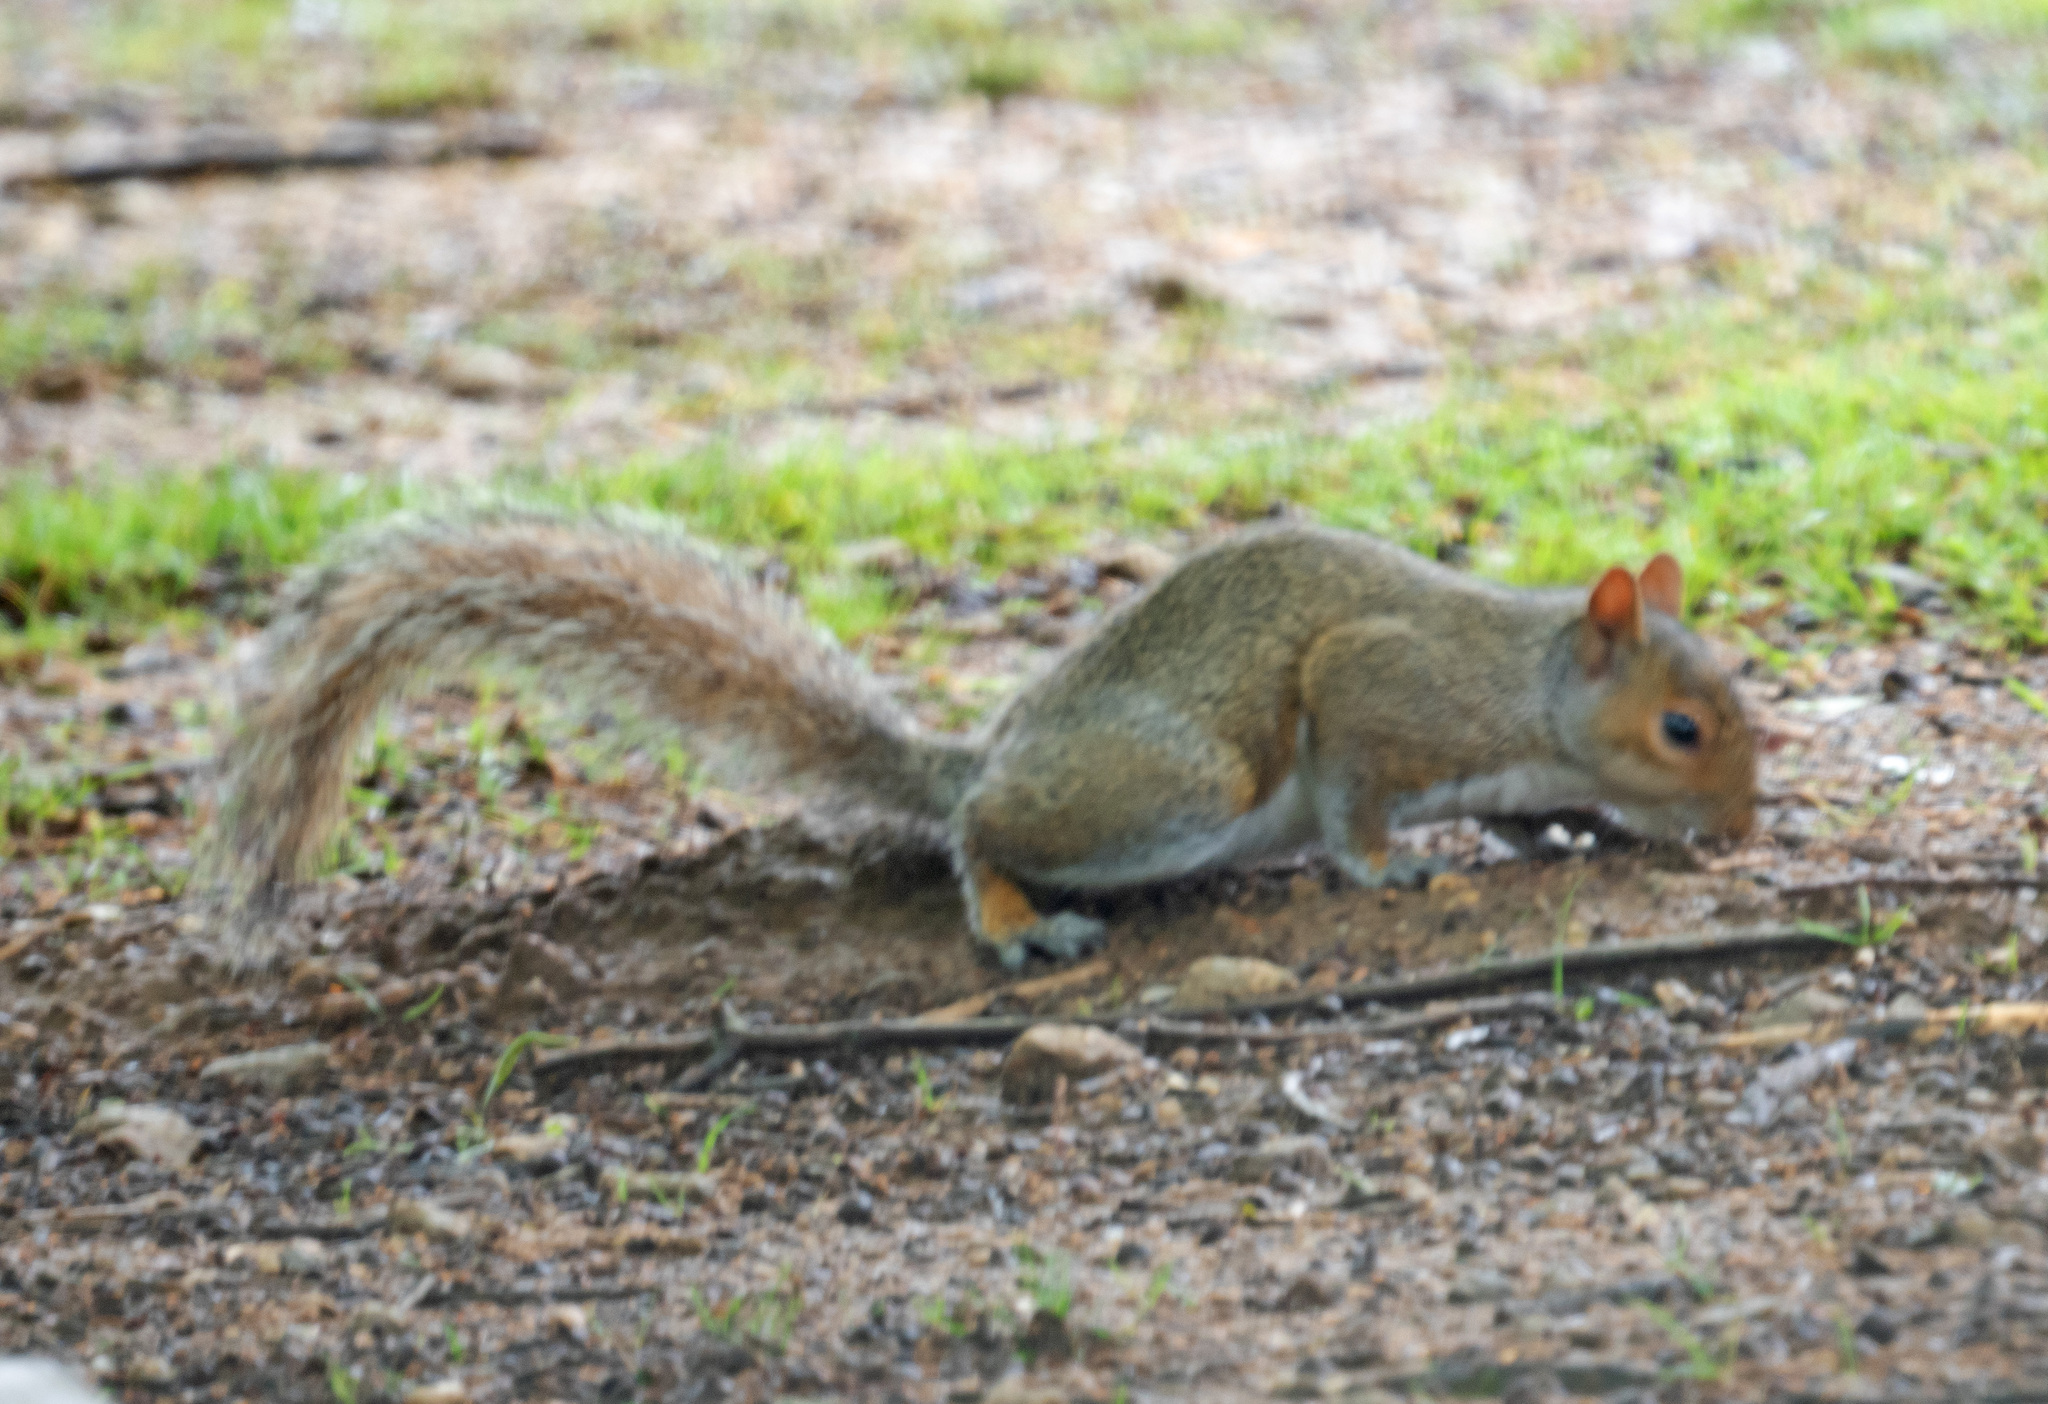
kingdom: Animalia
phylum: Chordata
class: Mammalia
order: Rodentia
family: Sciuridae
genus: Sciurus
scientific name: Sciurus carolinensis
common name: Eastern gray squirrel
